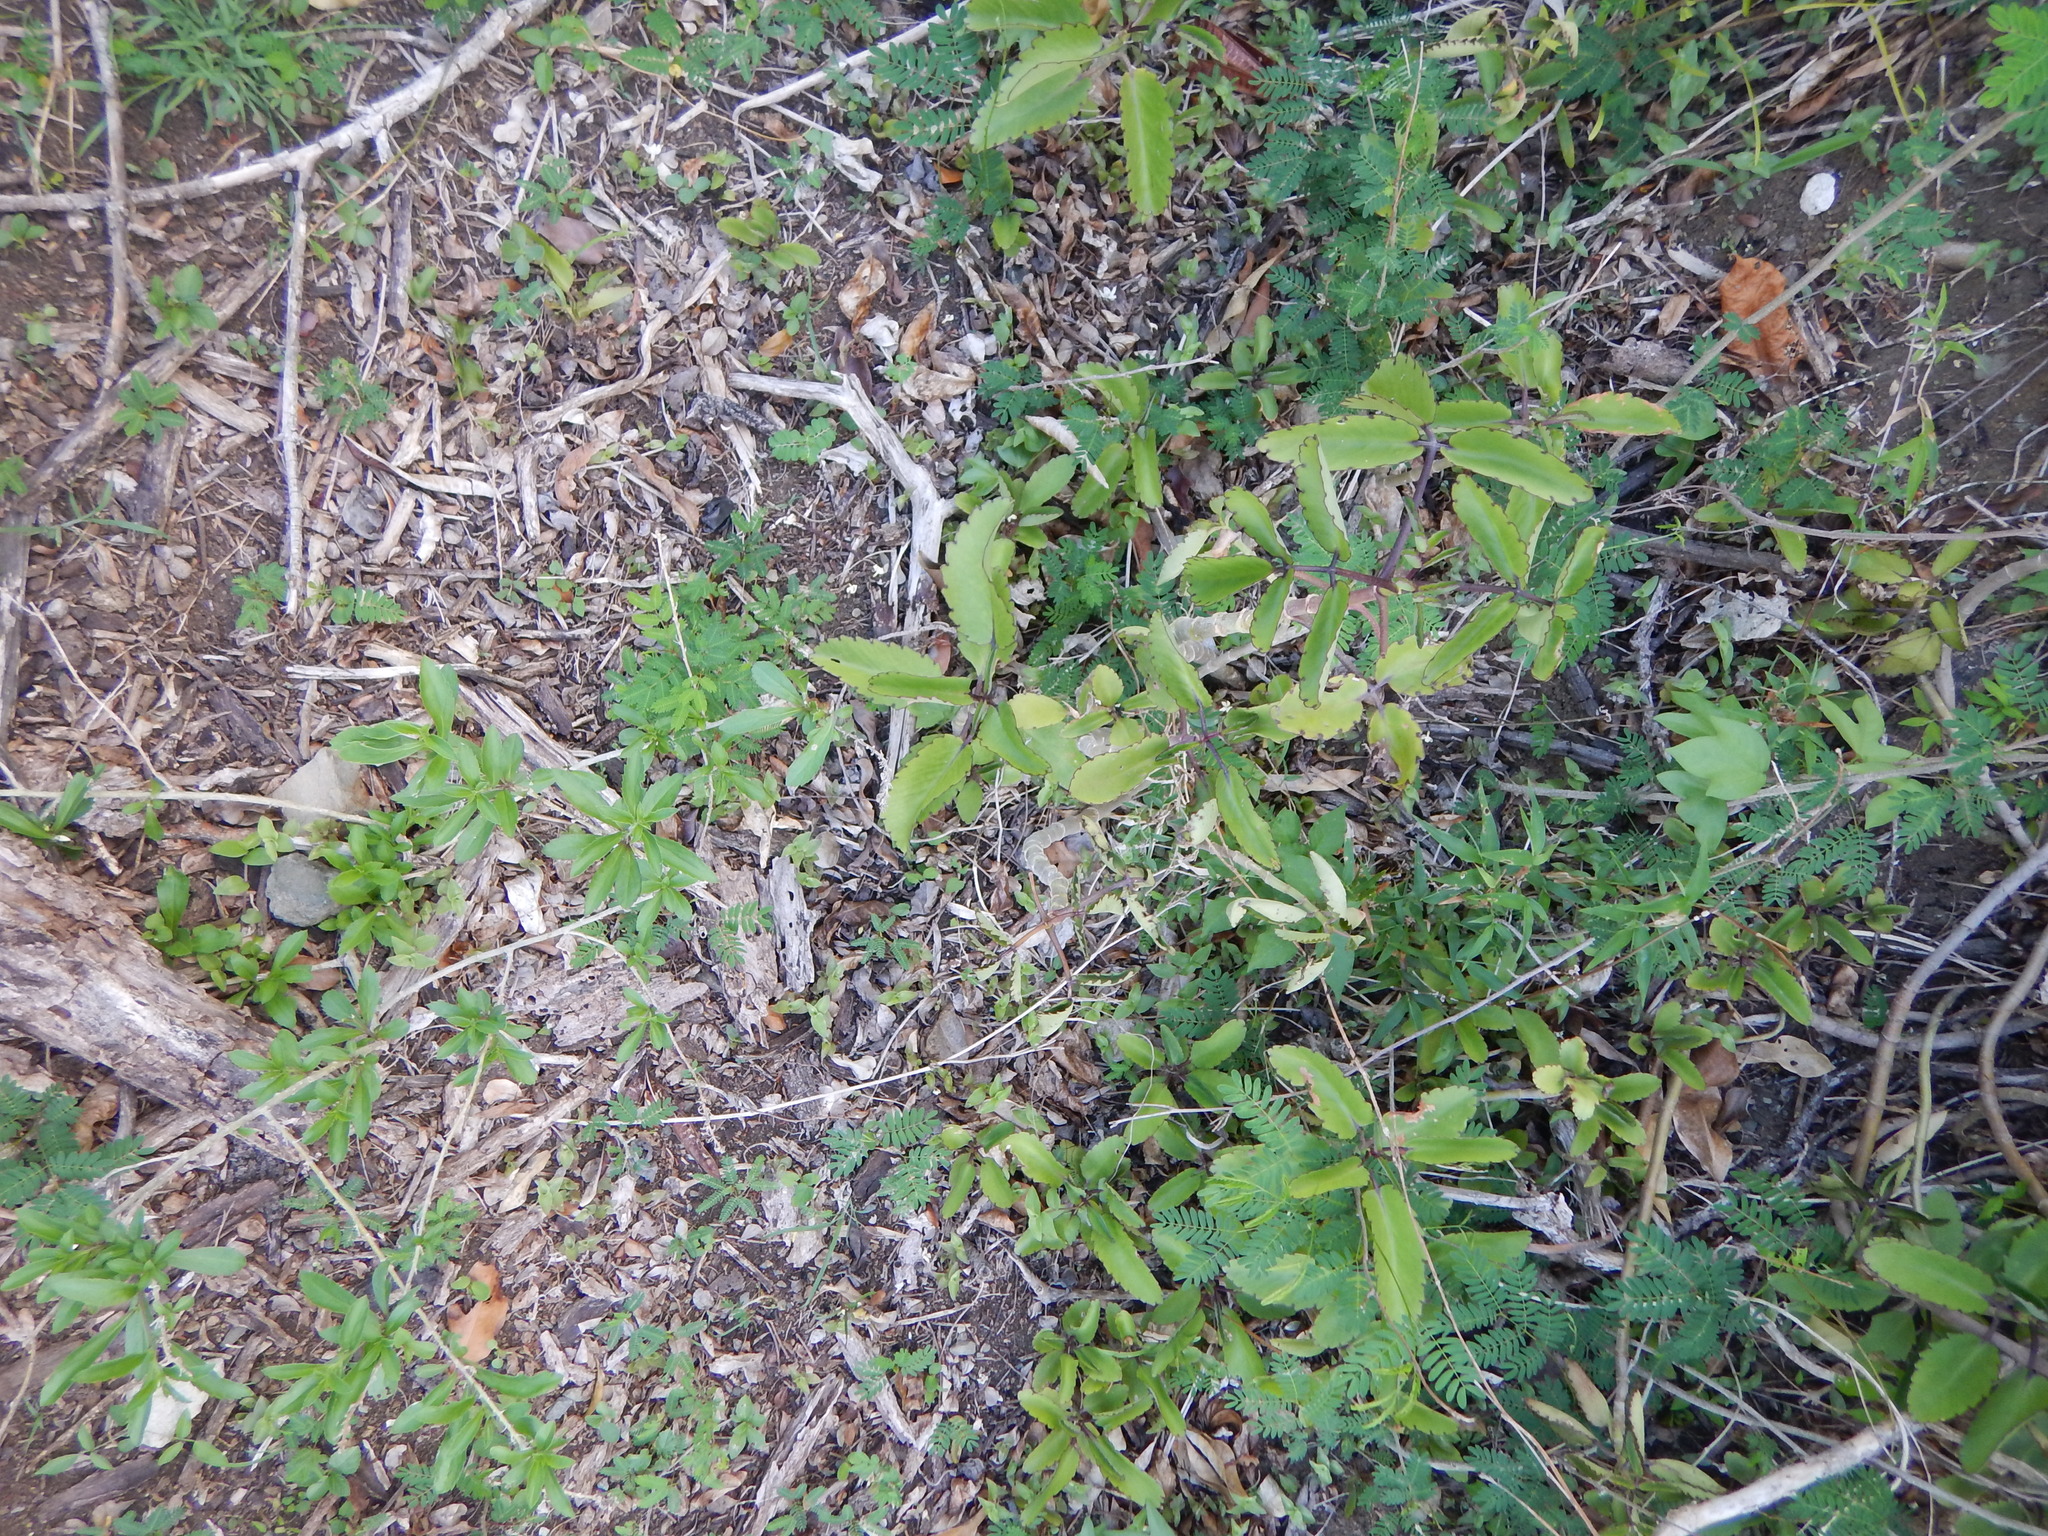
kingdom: Plantae
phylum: Tracheophyta
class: Magnoliopsida
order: Saxifragales
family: Crassulaceae
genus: Kalanchoe
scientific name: Kalanchoe pinnata
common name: Cathedral bells
